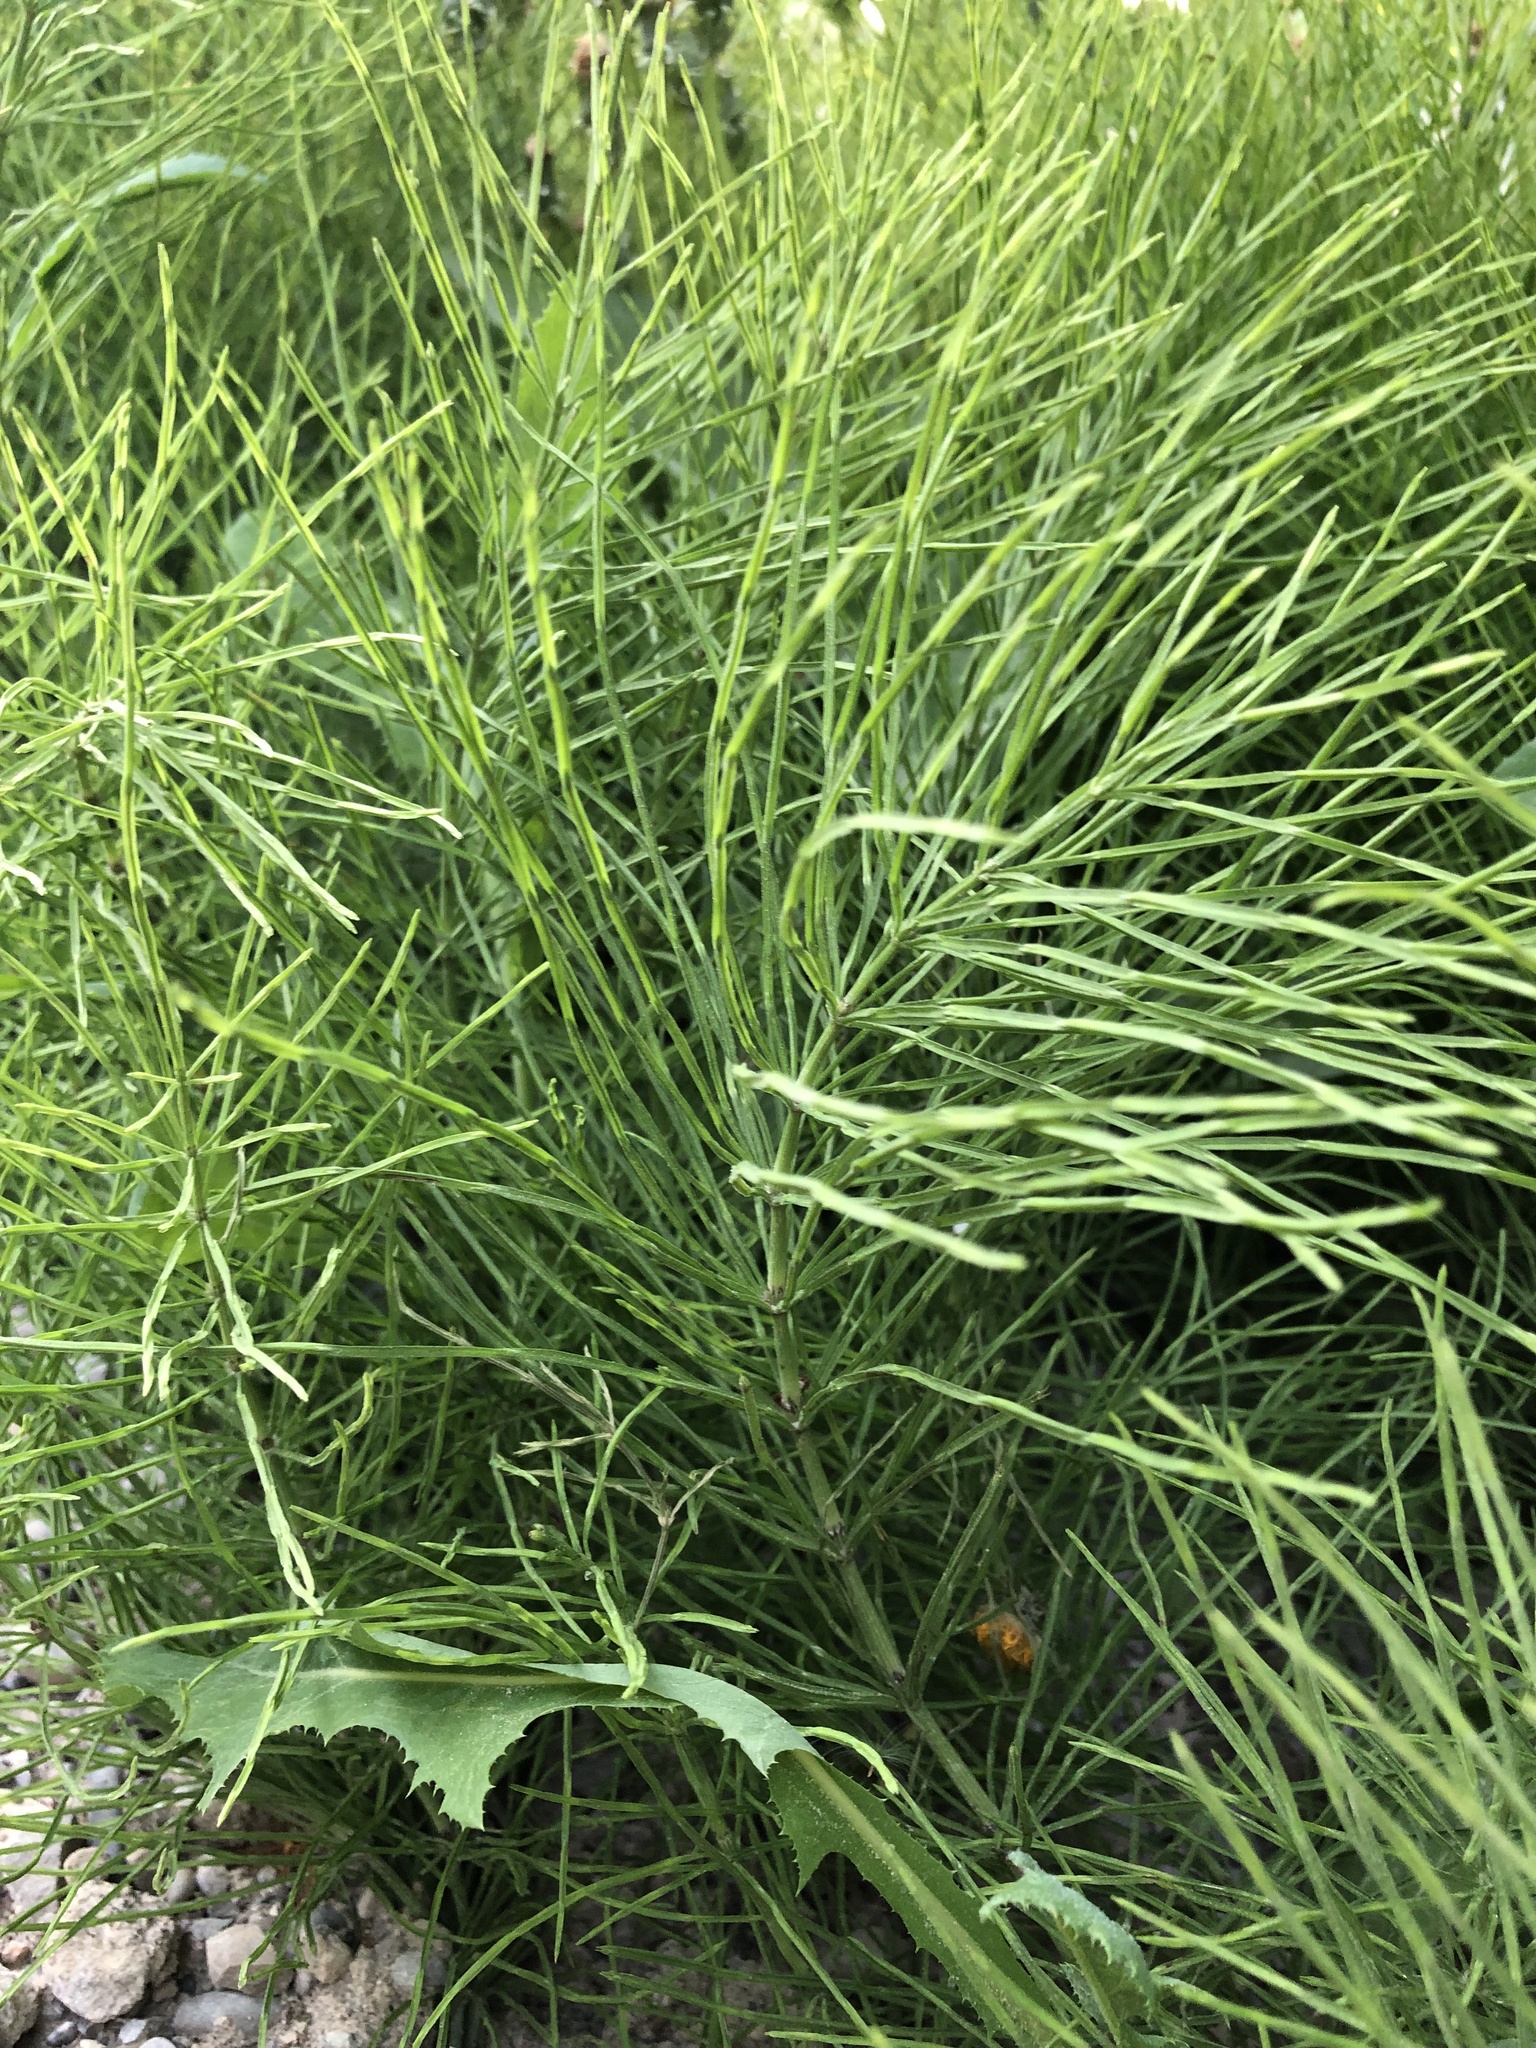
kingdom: Plantae
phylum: Tracheophyta
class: Polypodiopsida
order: Equisetales
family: Equisetaceae
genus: Equisetum
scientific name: Equisetum arvense
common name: Field horsetail
